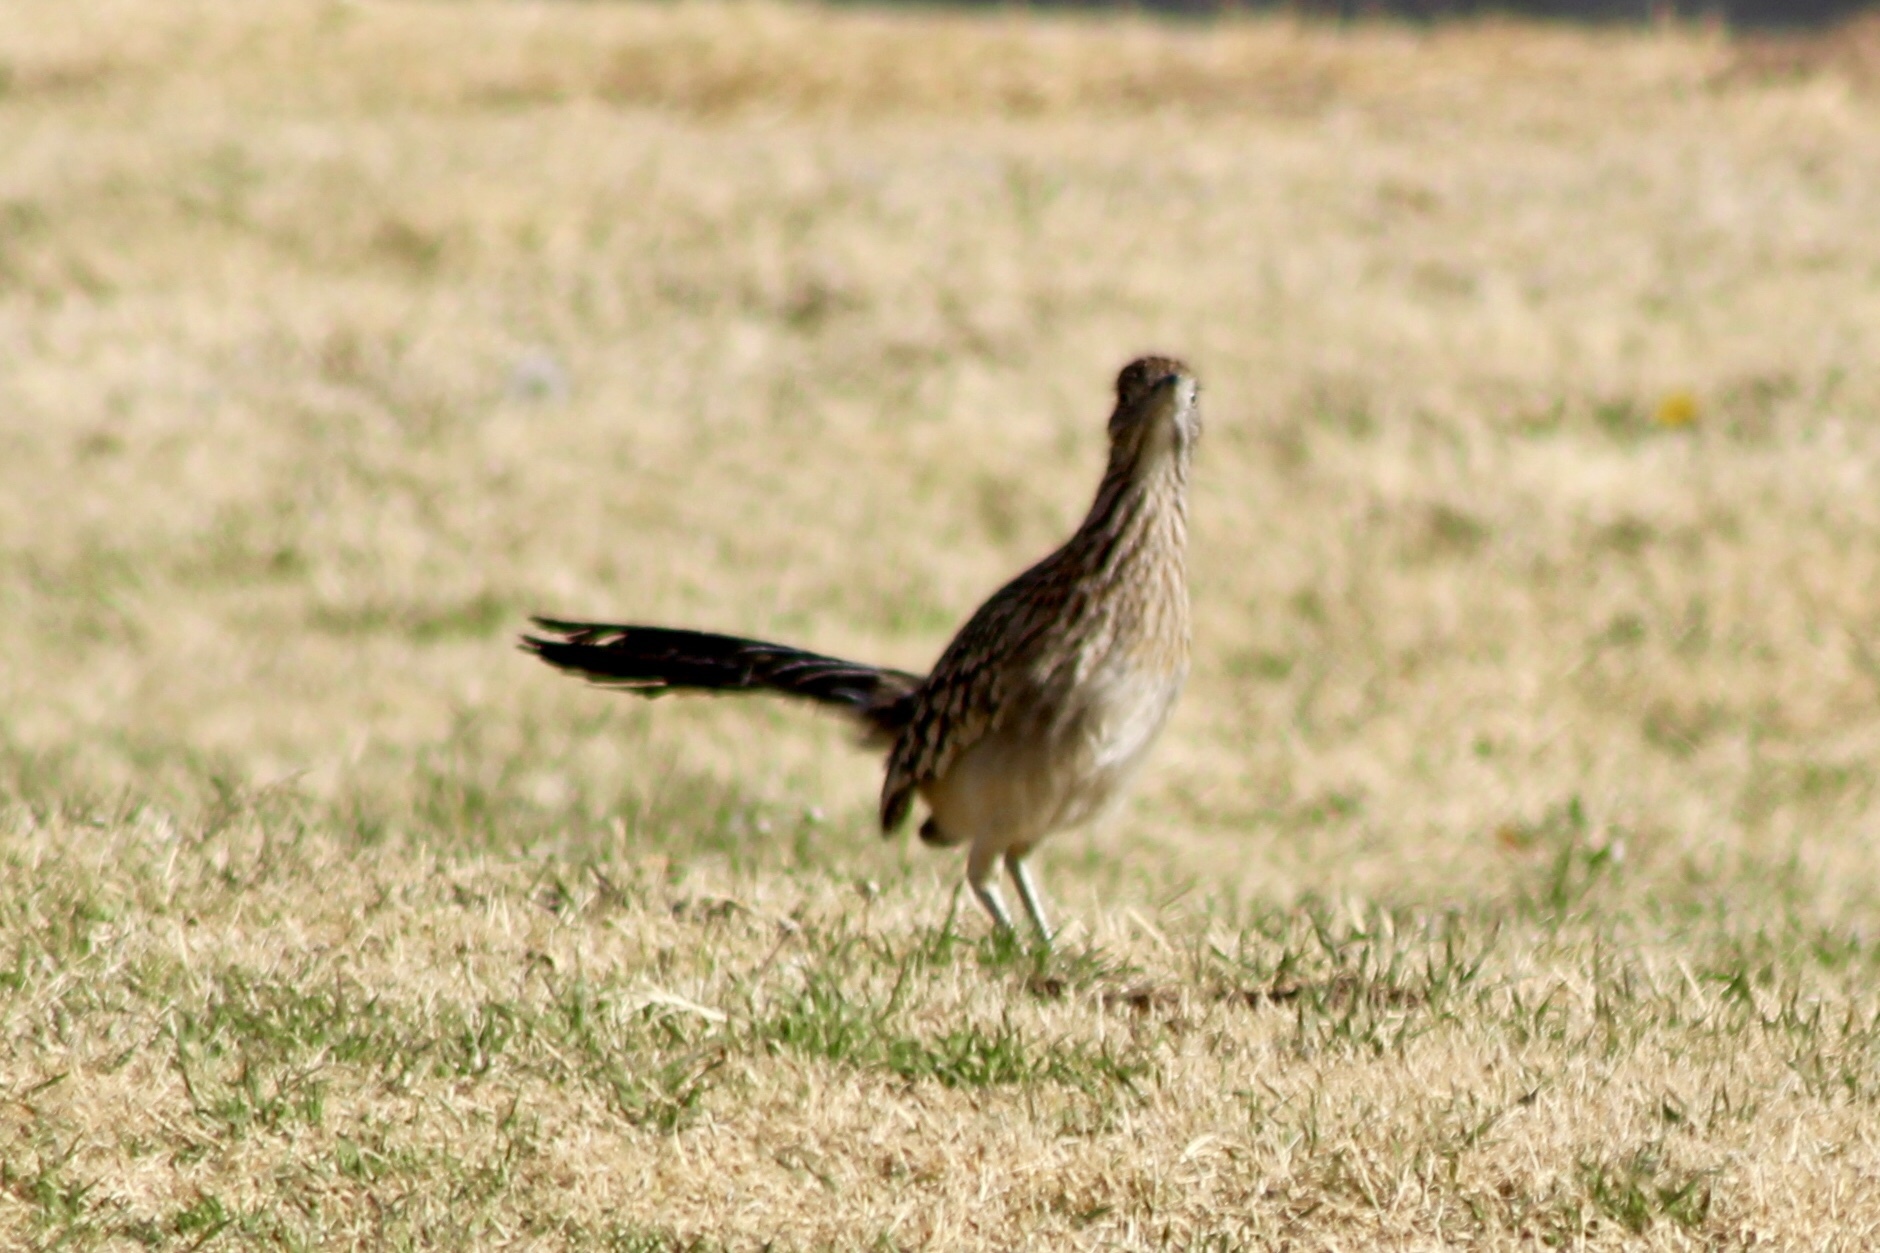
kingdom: Animalia
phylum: Chordata
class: Aves
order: Cuculiformes
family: Cuculidae
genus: Geococcyx
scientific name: Geococcyx californianus
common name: Greater roadrunner
